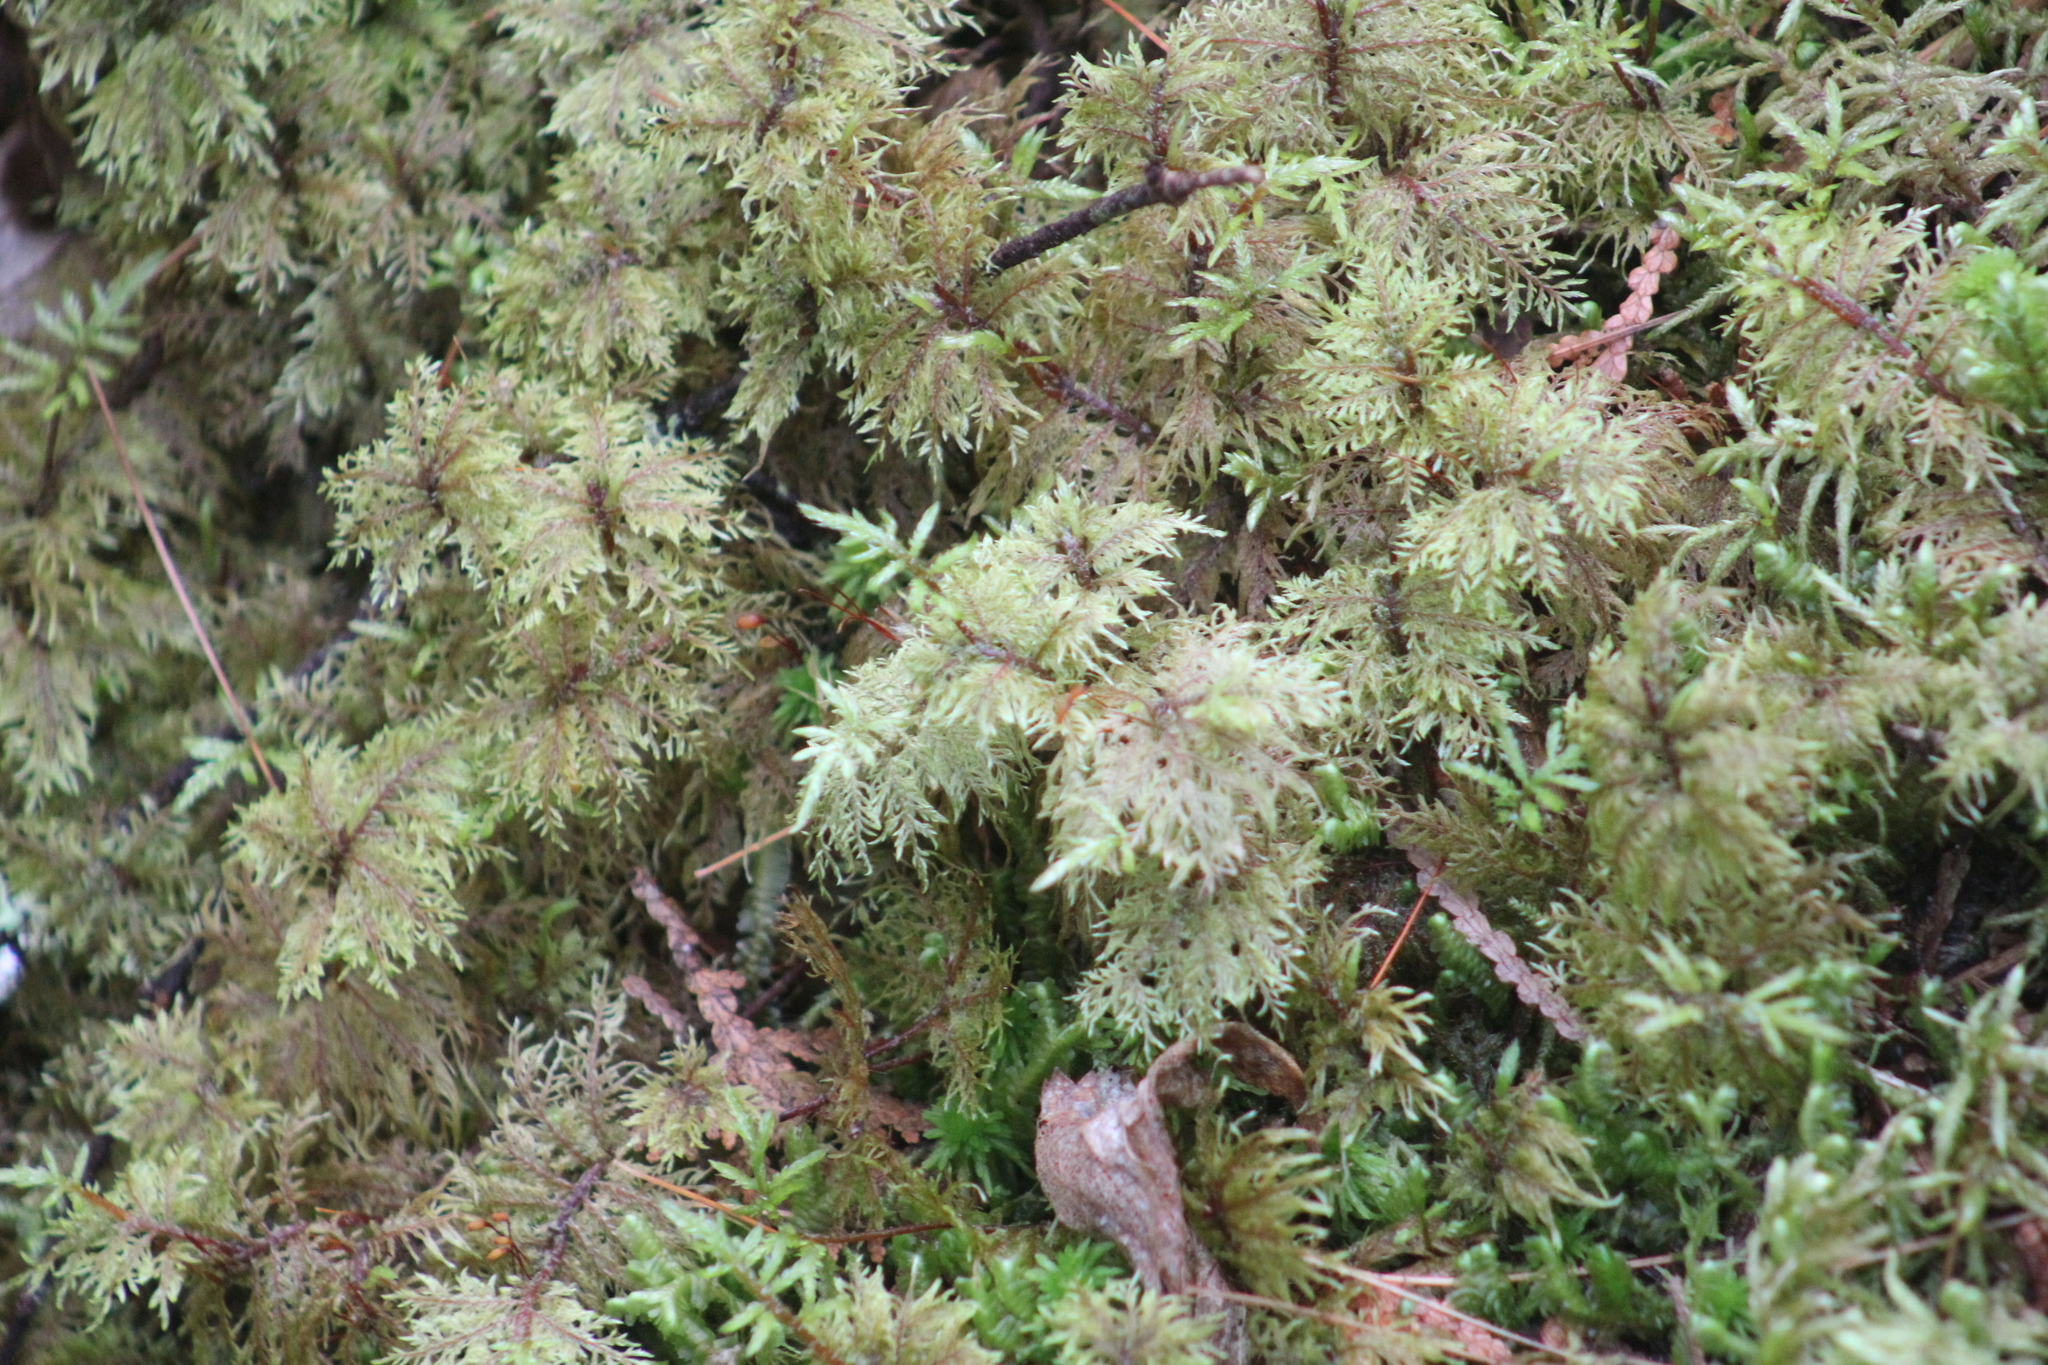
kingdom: Plantae
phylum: Bryophyta
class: Bryopsida
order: Hypnales
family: Hylocomiaceae
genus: Hylocomium
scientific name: Hylocomium splendens
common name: Stairstep moss
